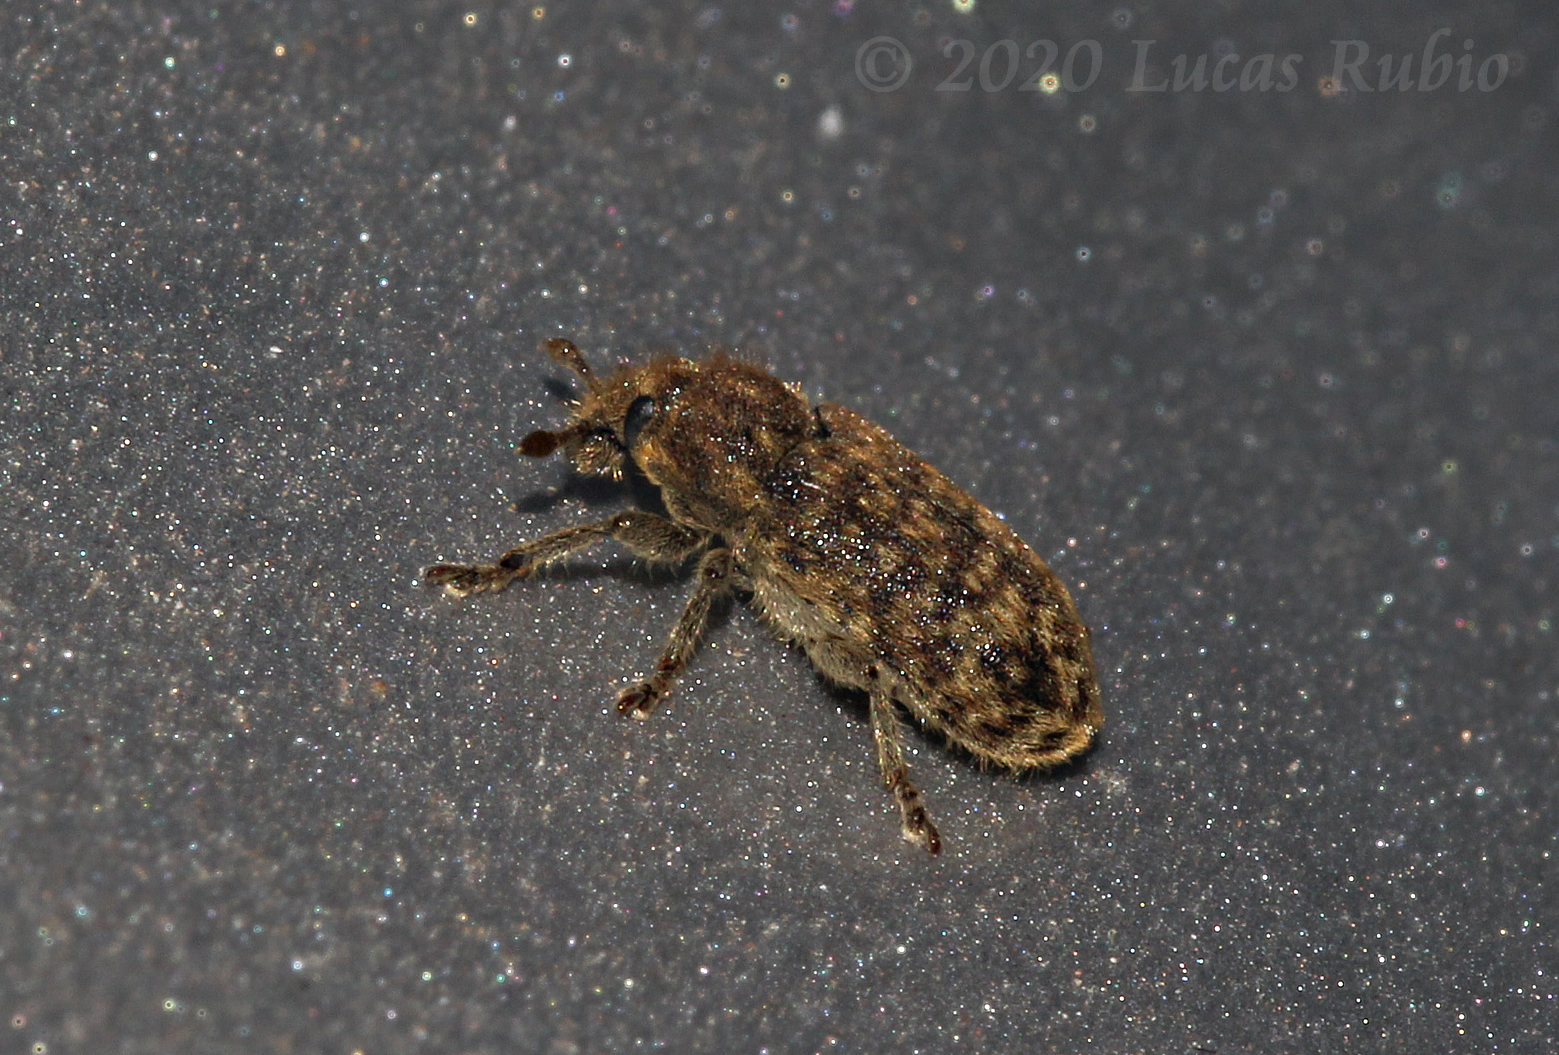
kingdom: Animalia
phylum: Arthropoda
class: Insecta
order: Coleoptera
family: Curculionidae
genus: Rhinocyllus
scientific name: Rhinocyllus conicus
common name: Weevil
